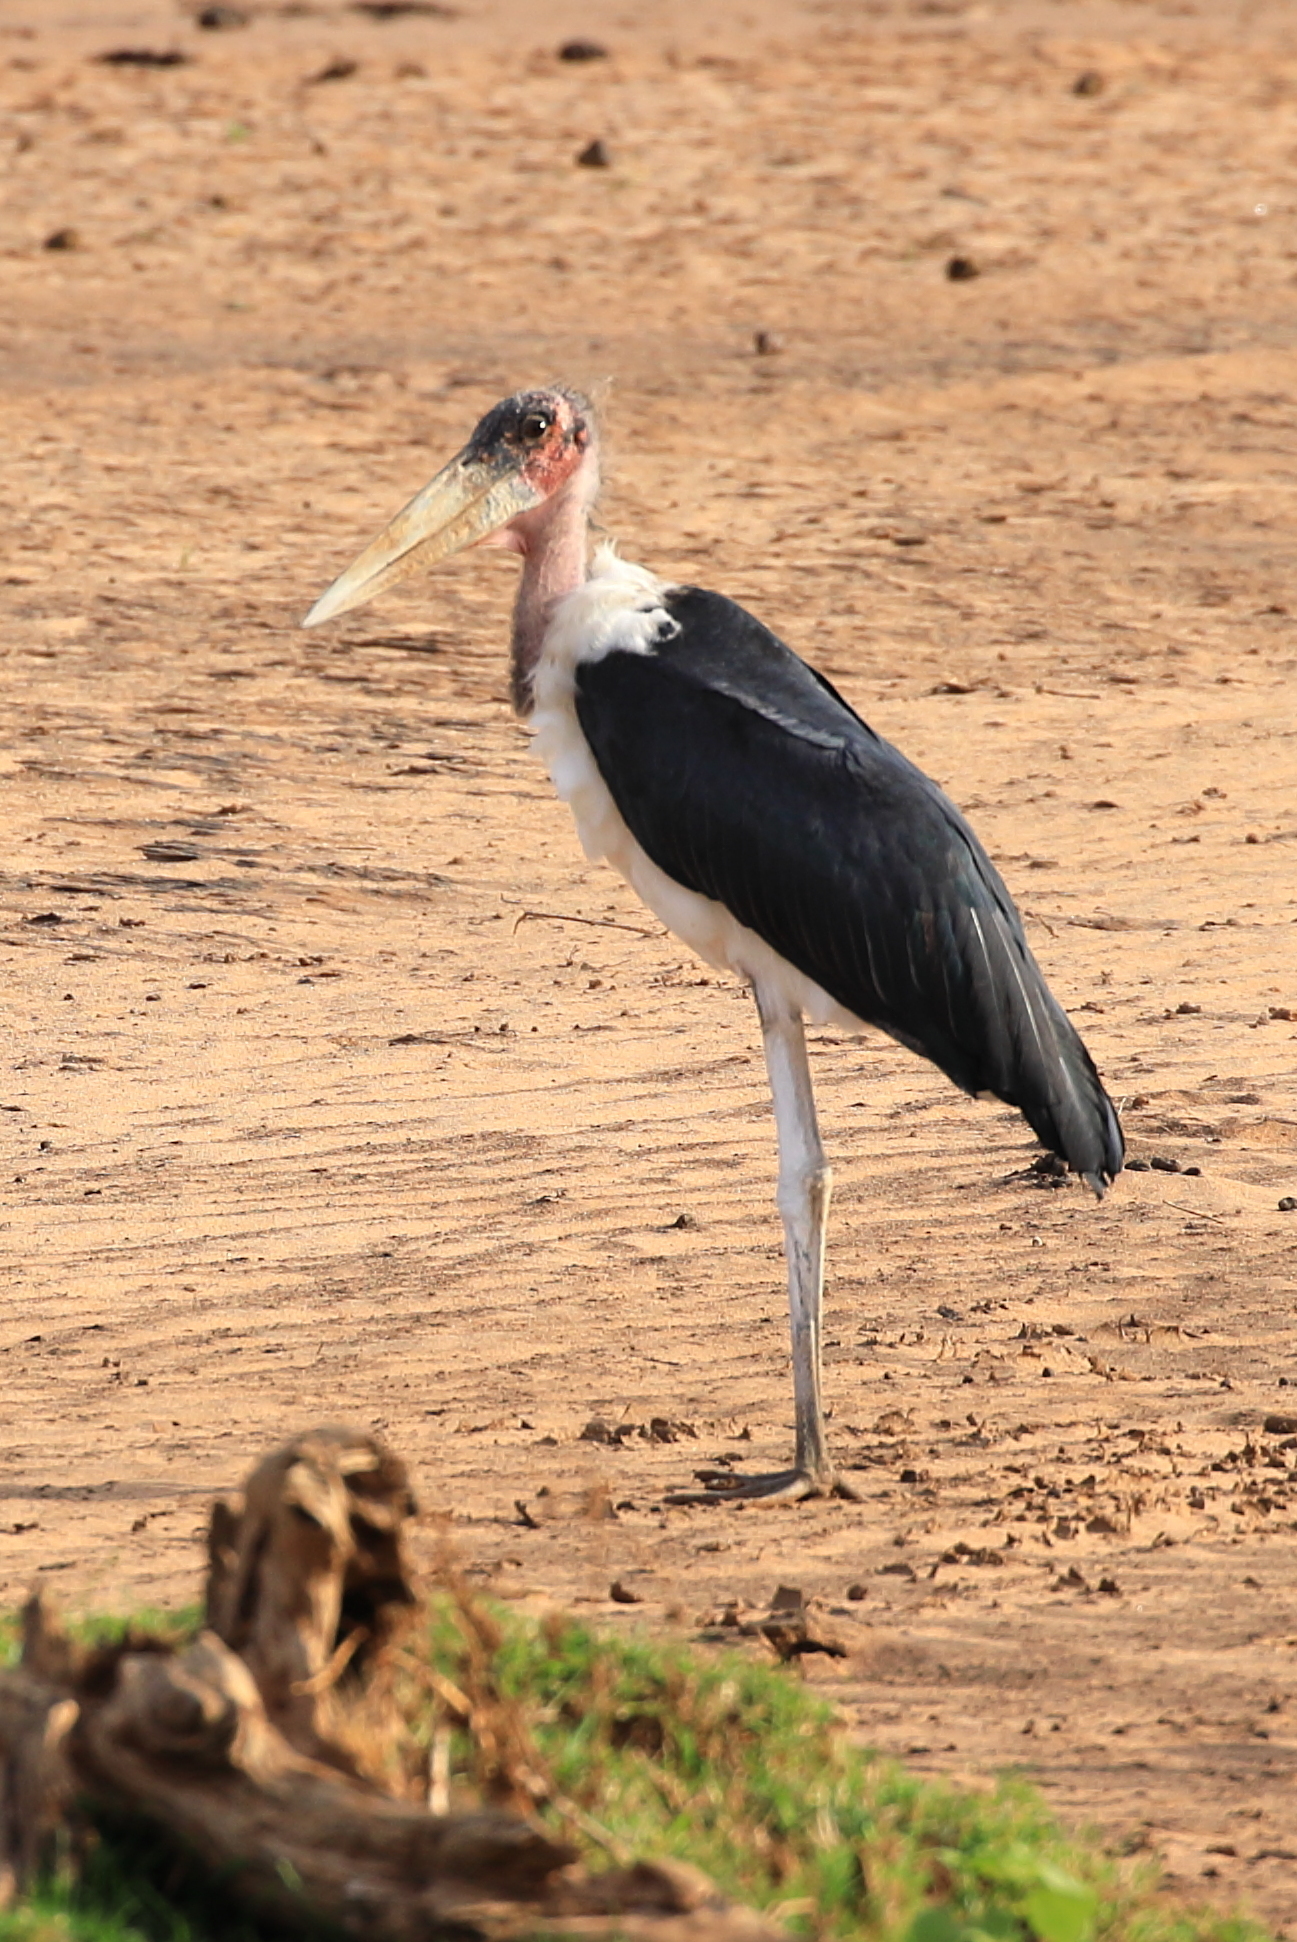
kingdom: Animalia
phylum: Chordata
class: Aves
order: Ciconiiformes
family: Ciconiidae
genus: Leptoptilos
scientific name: Leptoptilos crumenifer
